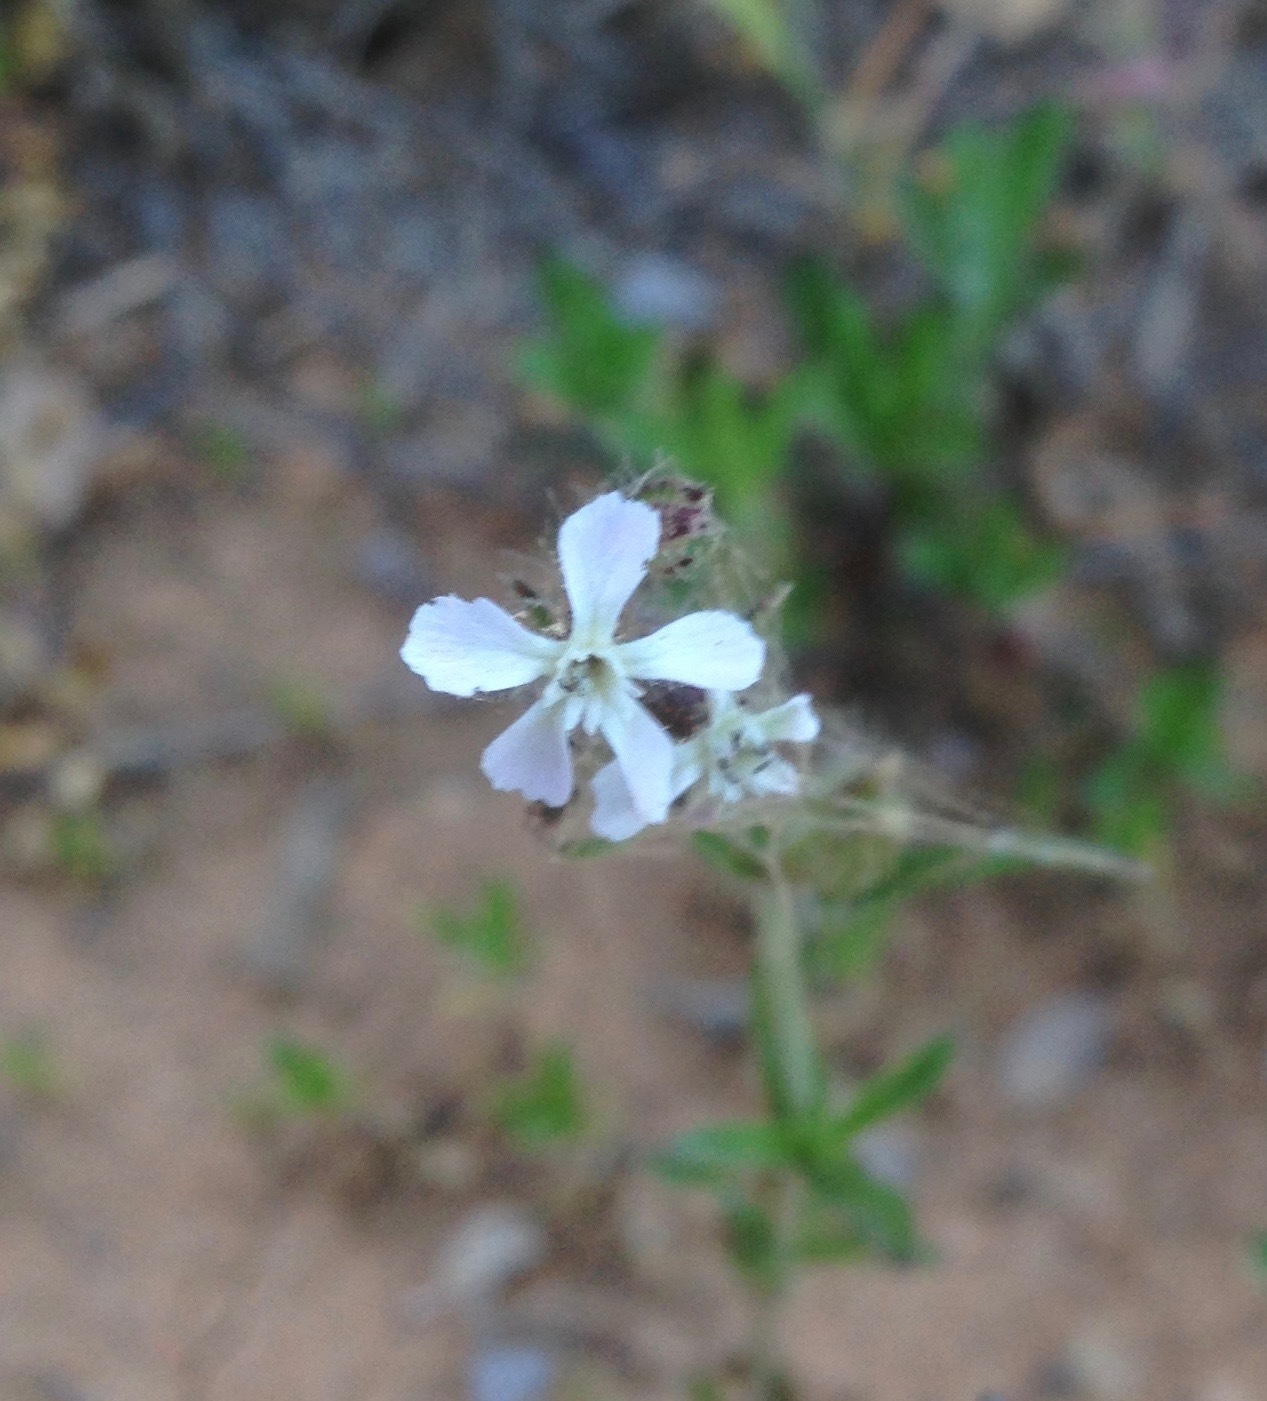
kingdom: Plantae
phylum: Tracheophyta
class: Magnoliopsida
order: Caryophyllales
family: Caryophyllaceae
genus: Silene
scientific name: Silene gallica
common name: Small-flowered catchfly
